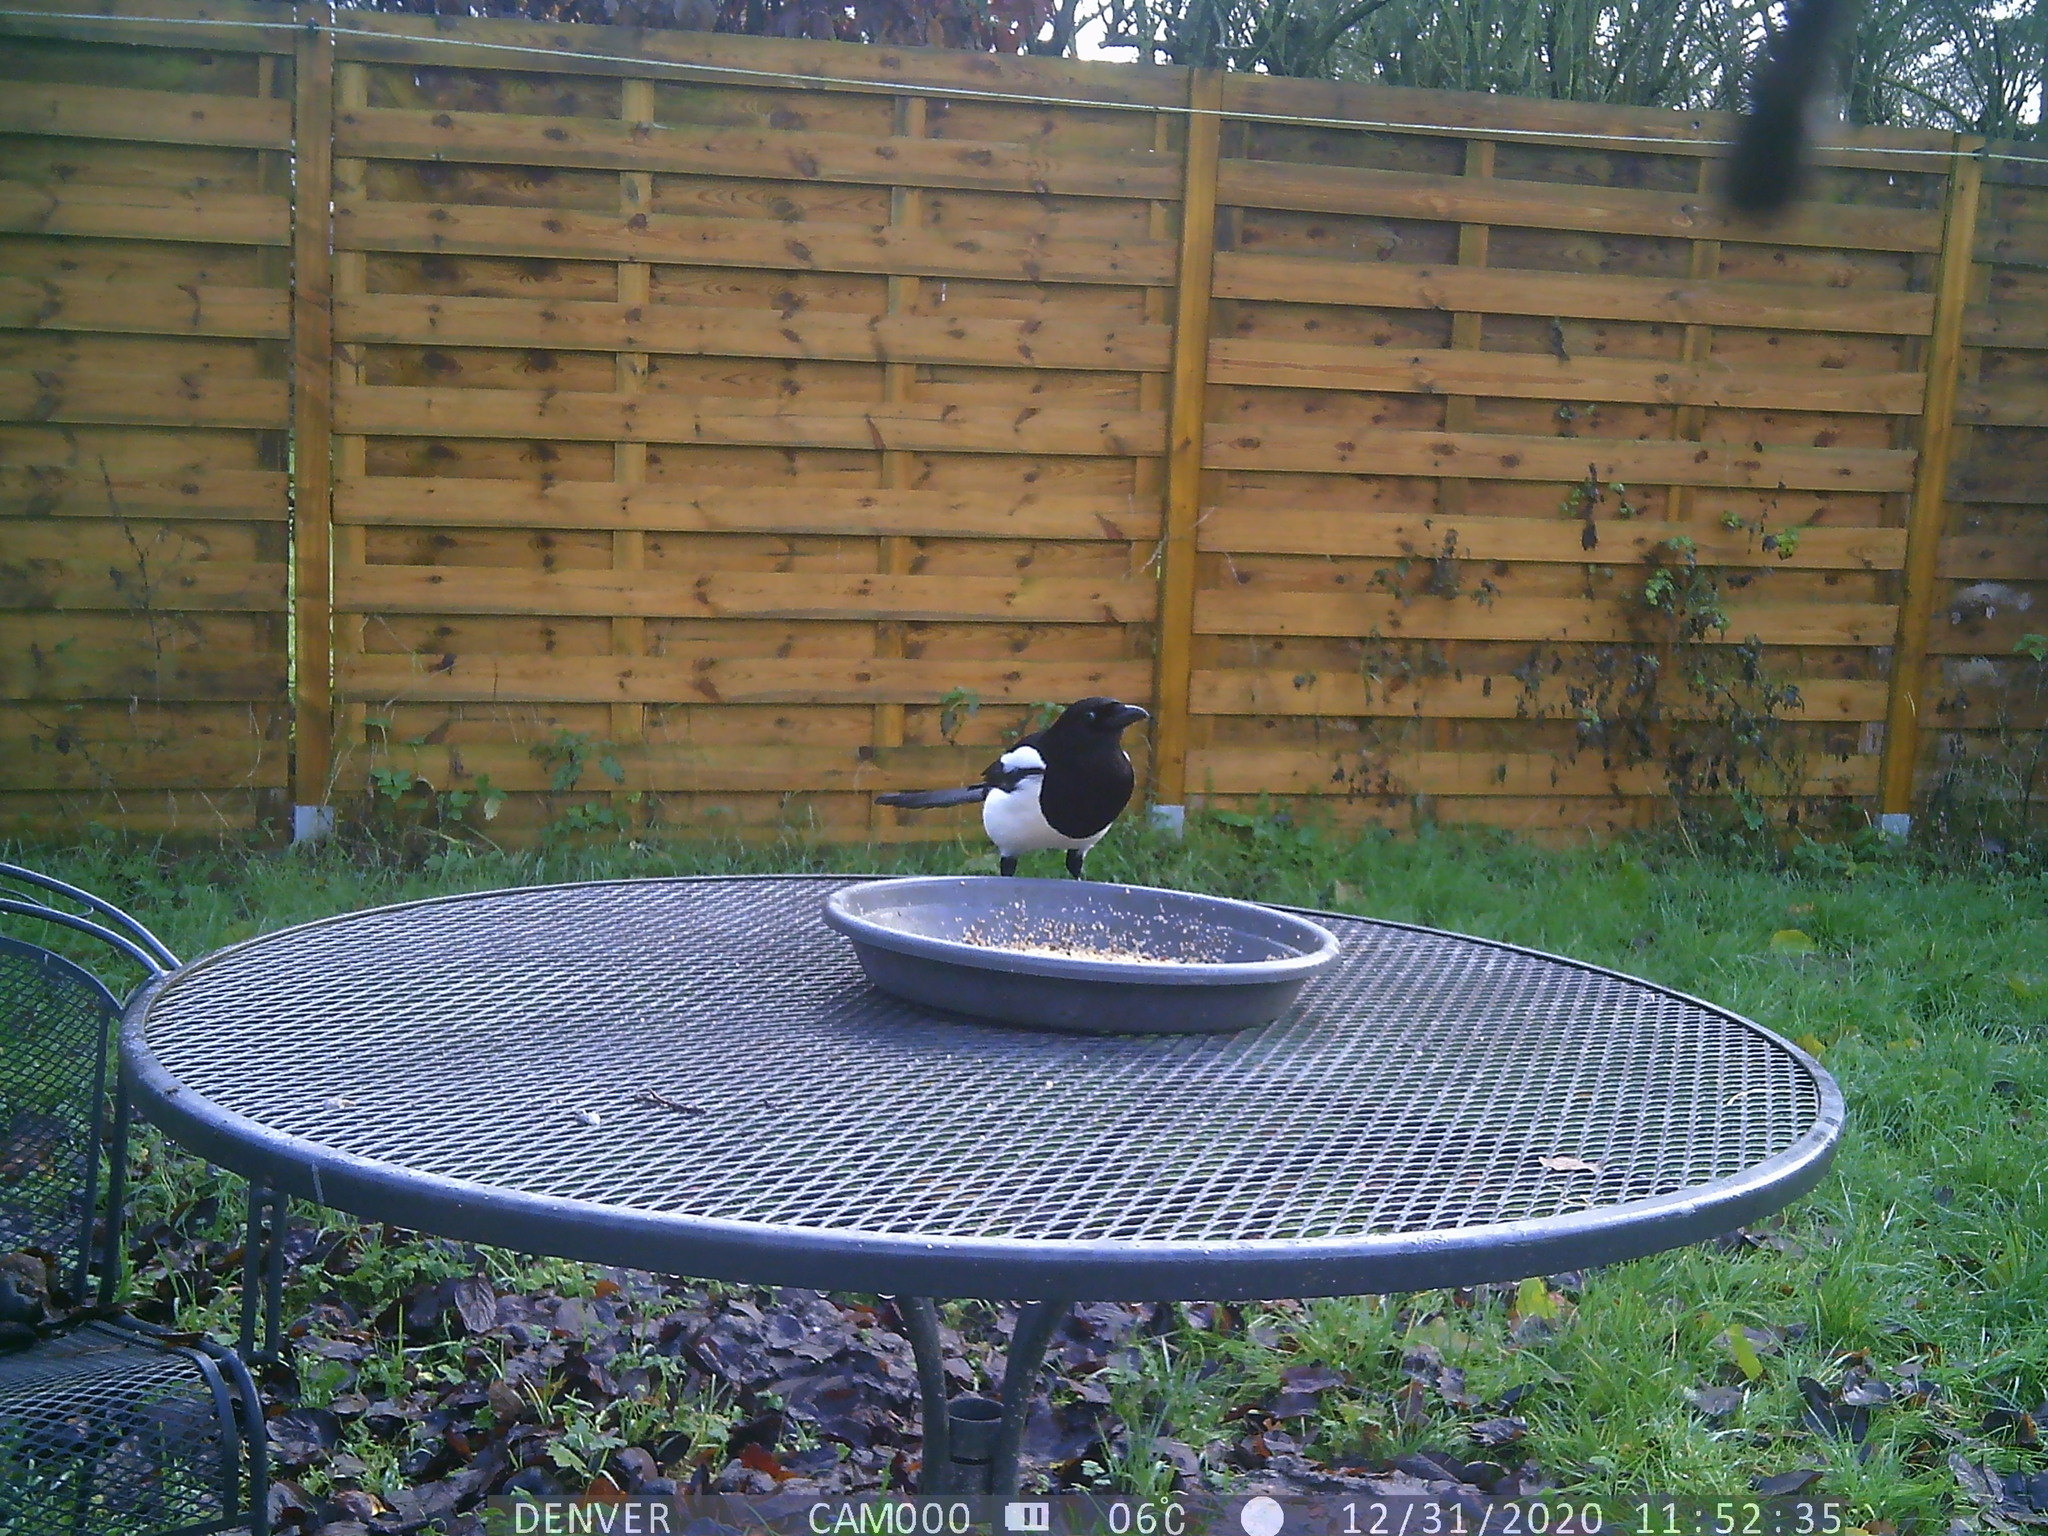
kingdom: Animalia
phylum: Chordata
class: Aves
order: Passeriformes
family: Corvidae
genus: Pica
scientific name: Pica pica
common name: Eurasian magpie
